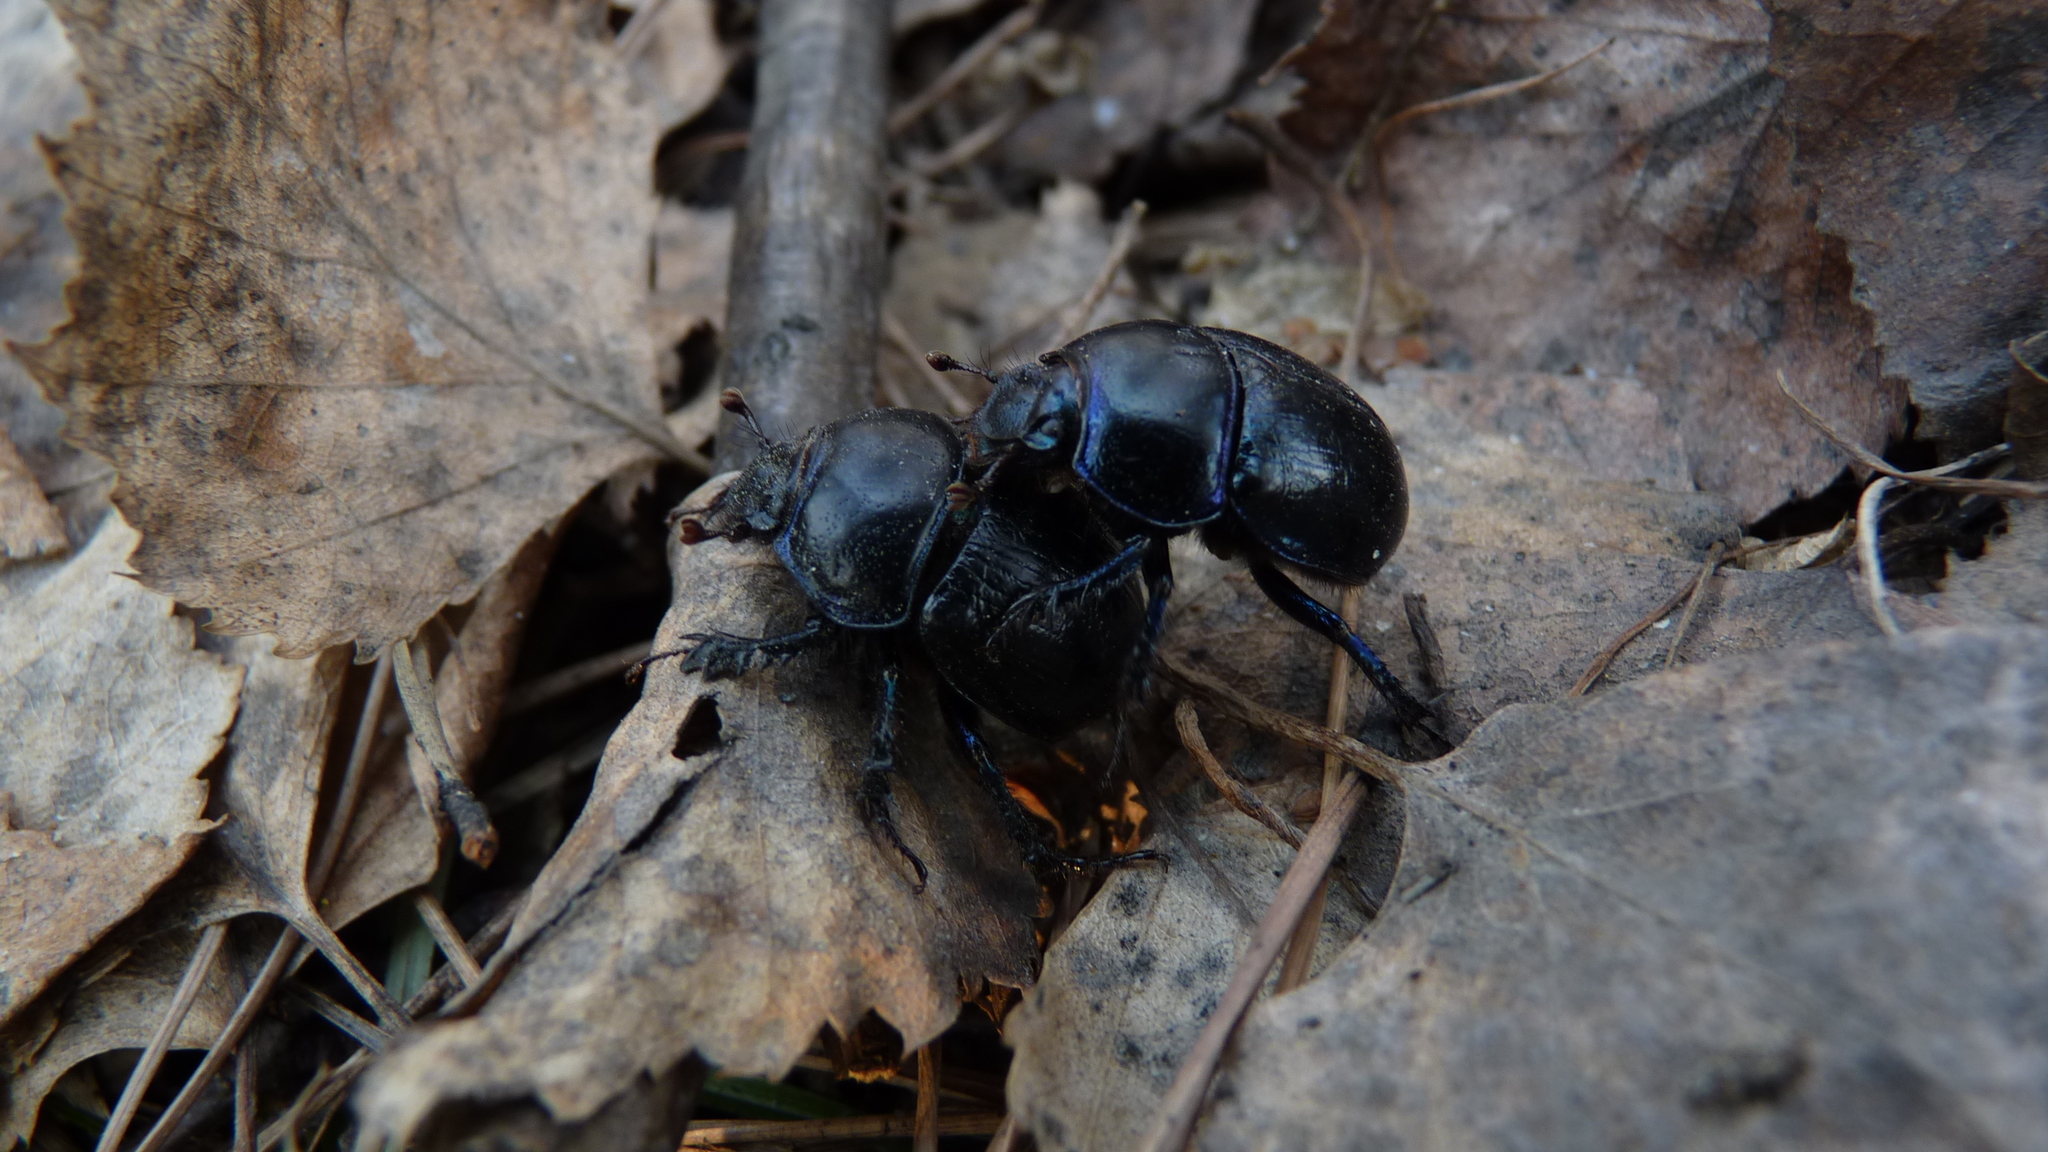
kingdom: Animalia
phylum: Arthropoda
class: Insecta
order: Coleoptera
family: Geotrupidae
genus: Anoplotrupes
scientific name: Anoplotrupes stercorosus
